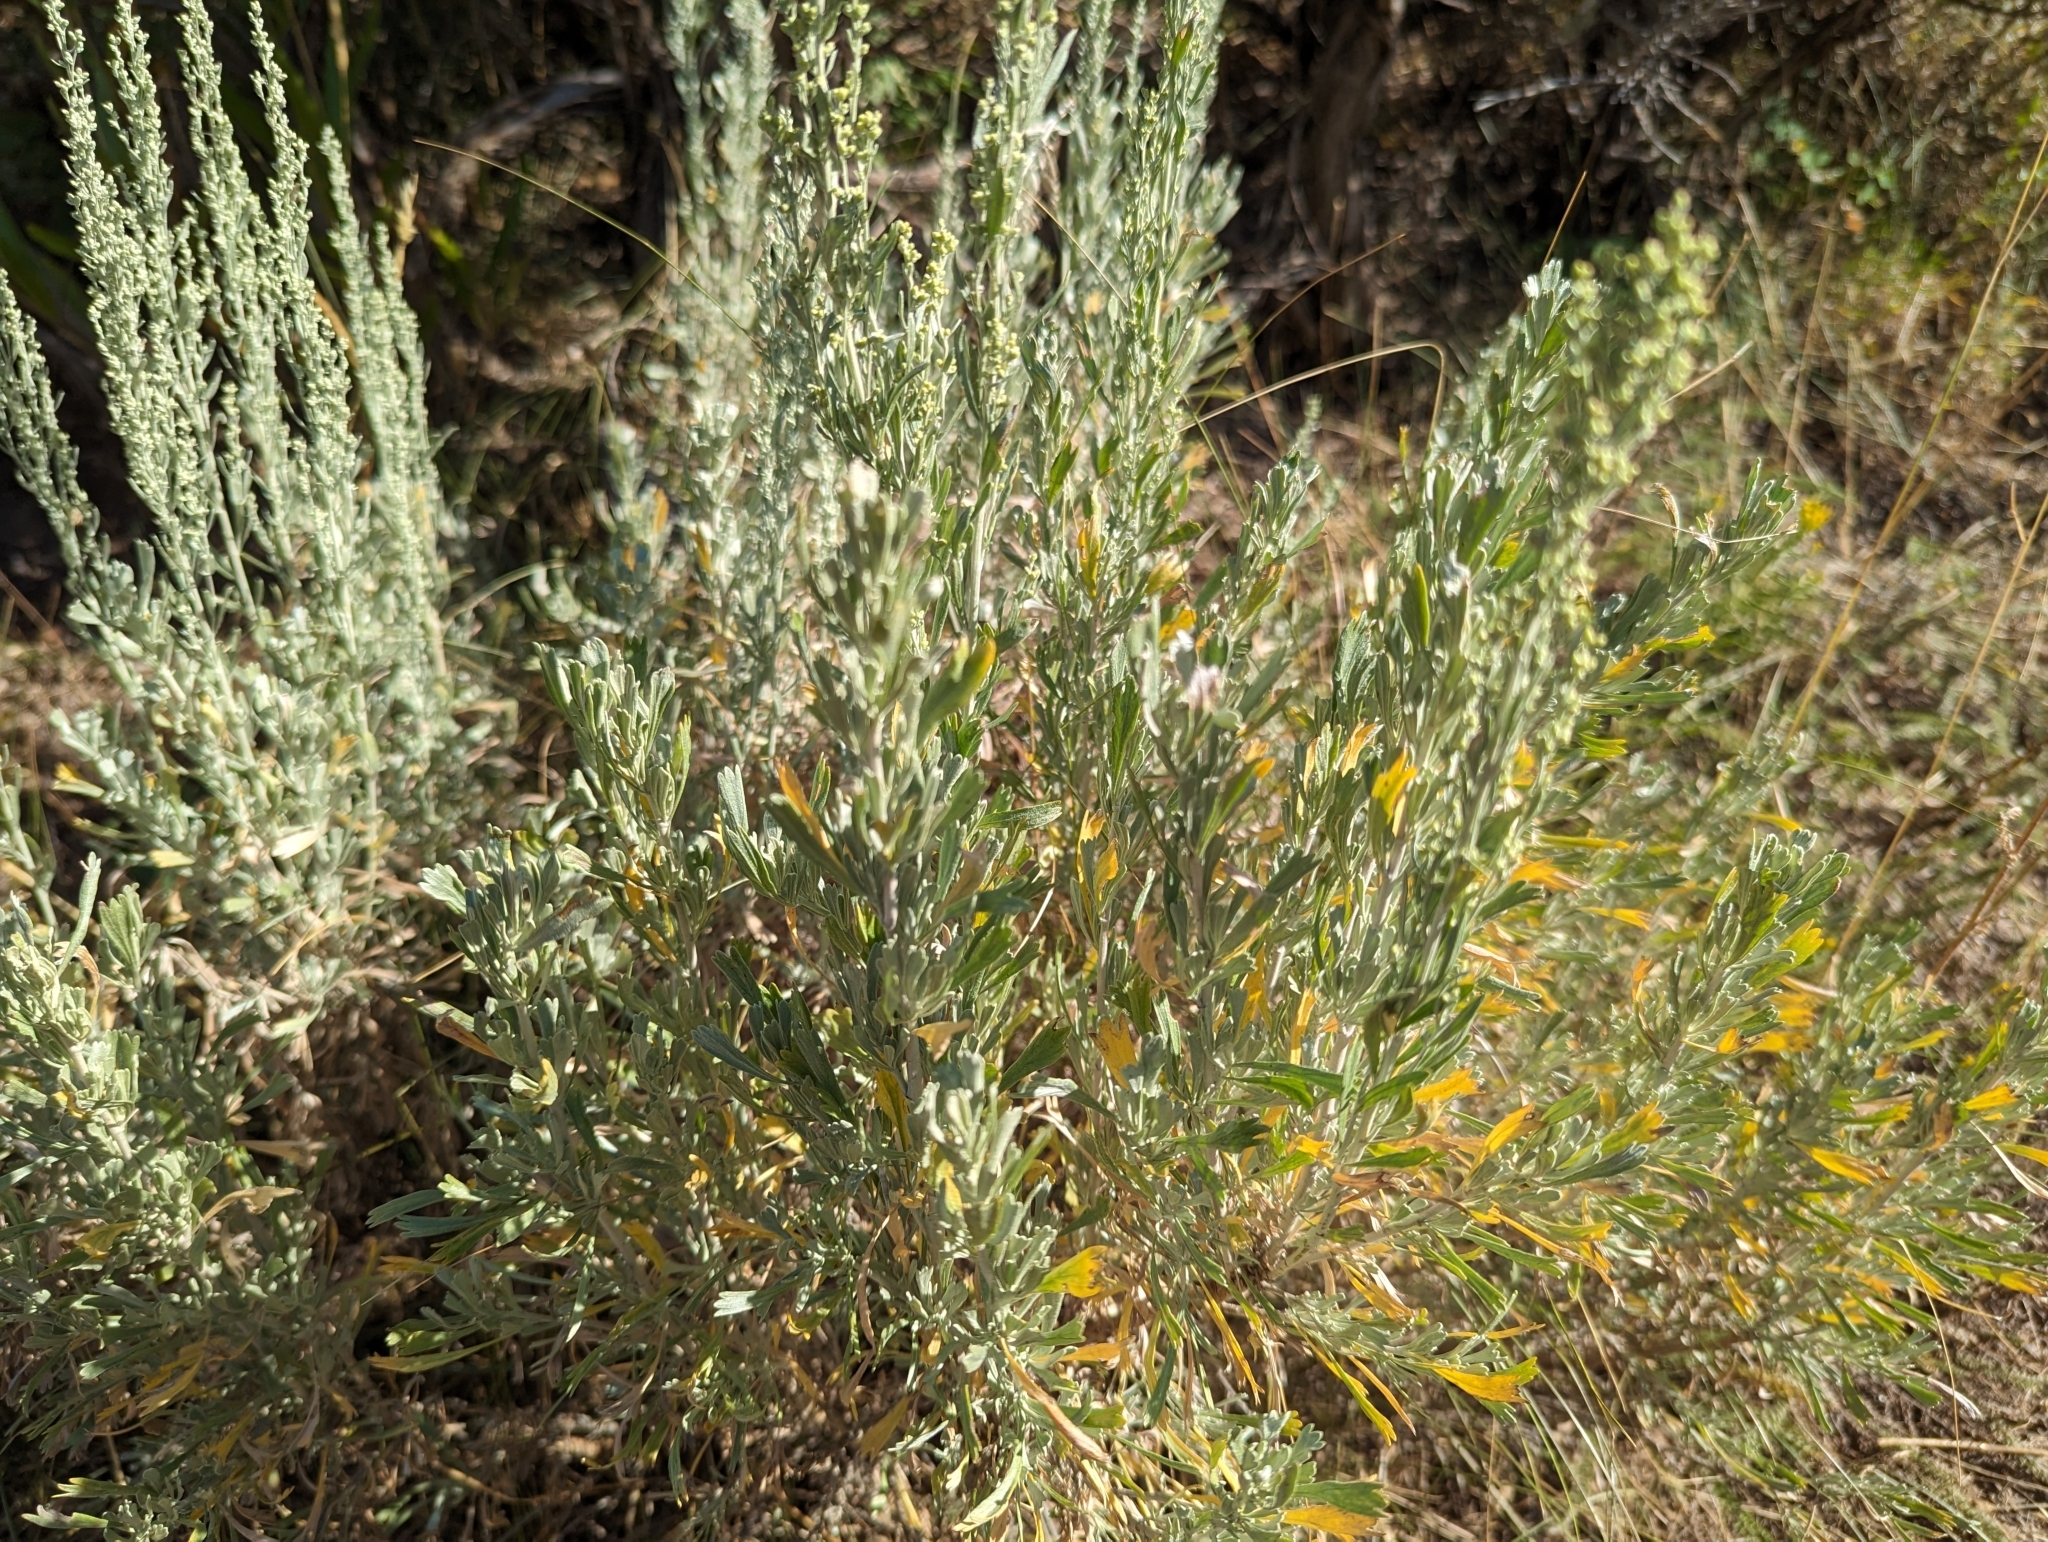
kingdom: Plantae
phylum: Tracheophyta
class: Magnoliopsida
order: Asterales
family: Asteraceae
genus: Artemisia
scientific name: Artemisia tridentata
